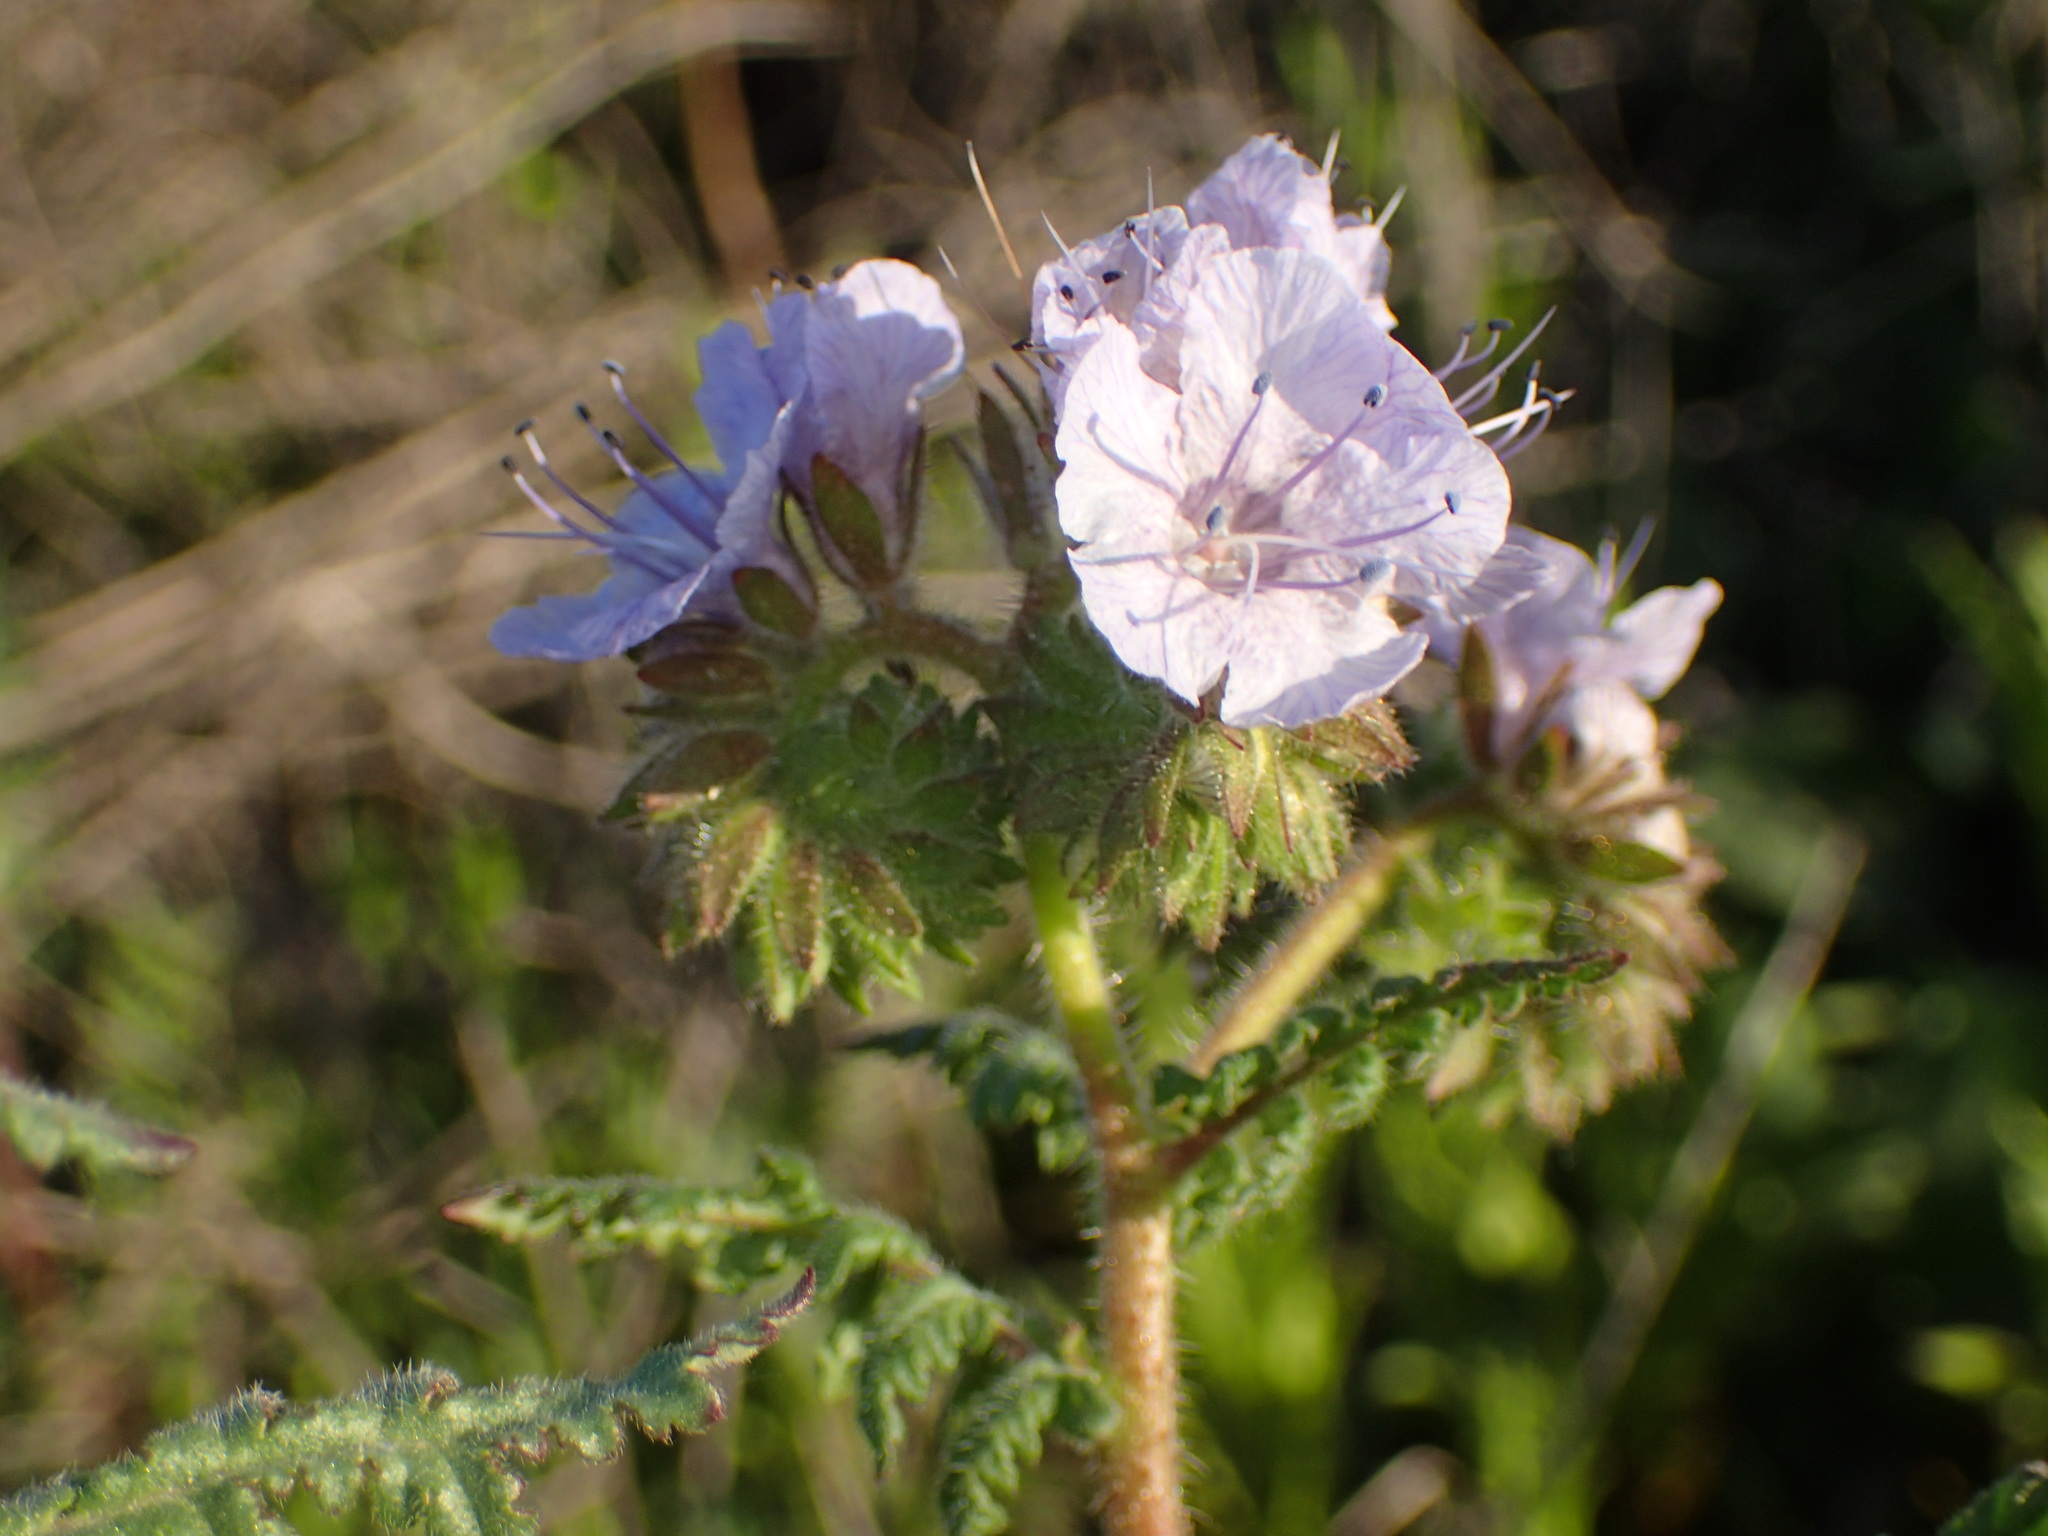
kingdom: Plantae
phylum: Tracheophyta
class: Magnoliopsida
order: Boraginales
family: Hydrophyllaceae
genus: Phacelia
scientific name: Phacelia distans
